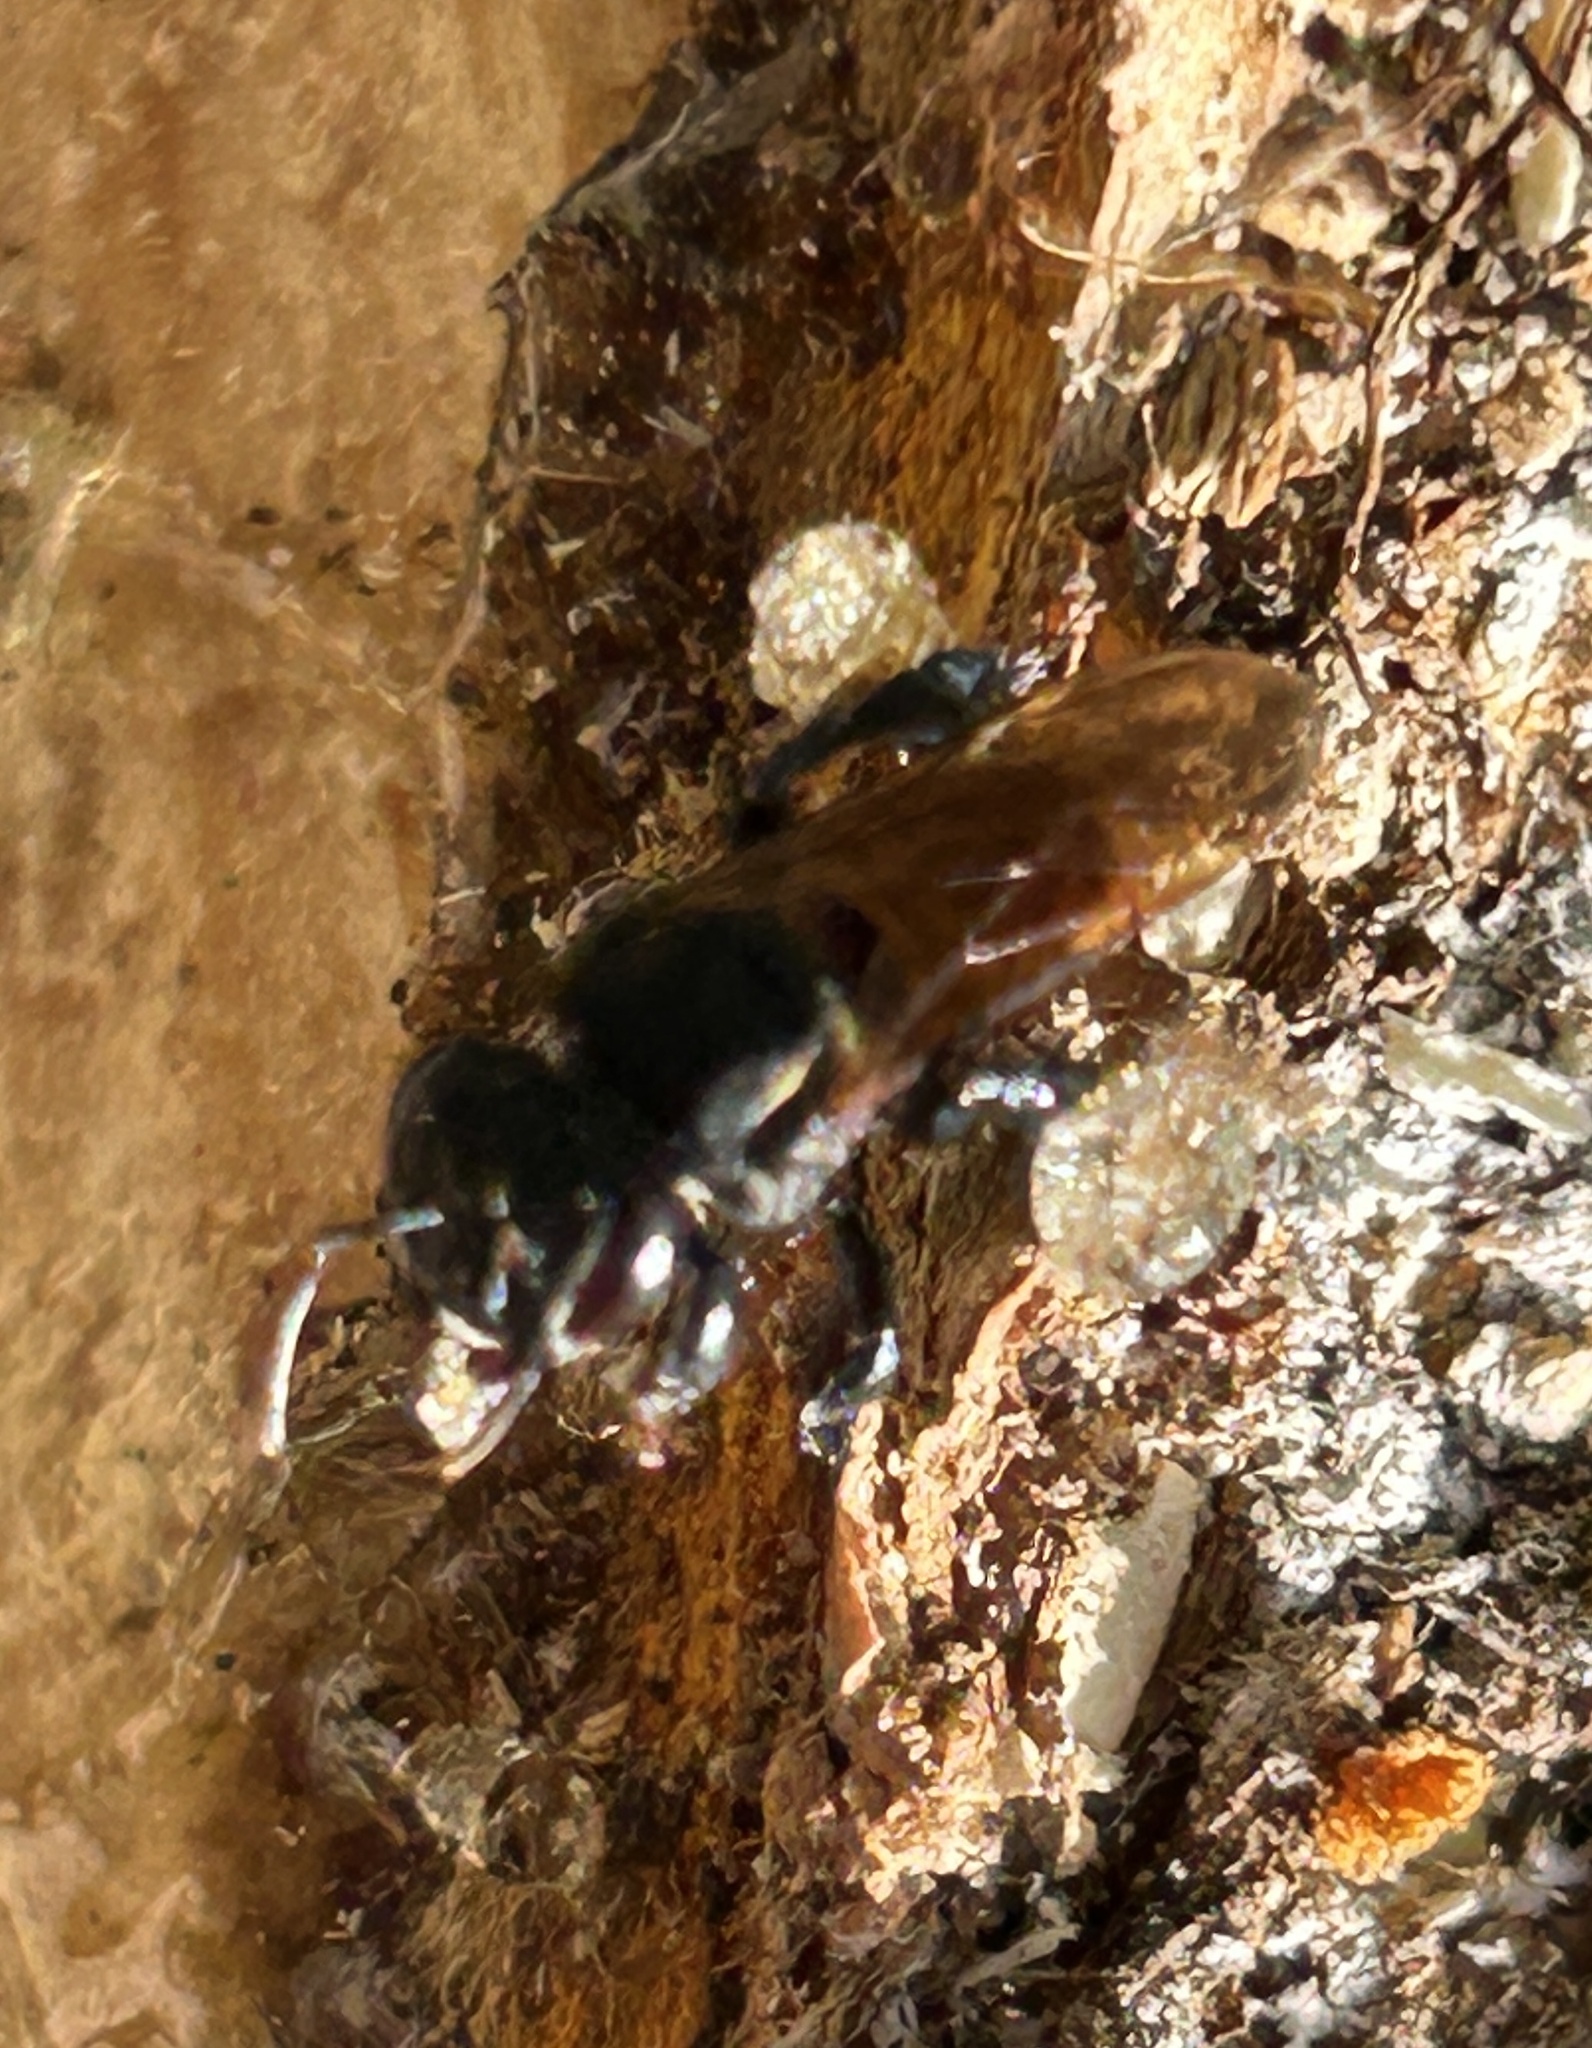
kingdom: Animalia
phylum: Arthropoda
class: Insecta
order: Hymenoptera
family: Apidae
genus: Cephalotrigona
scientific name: Cephalotrigona zexmeniae
